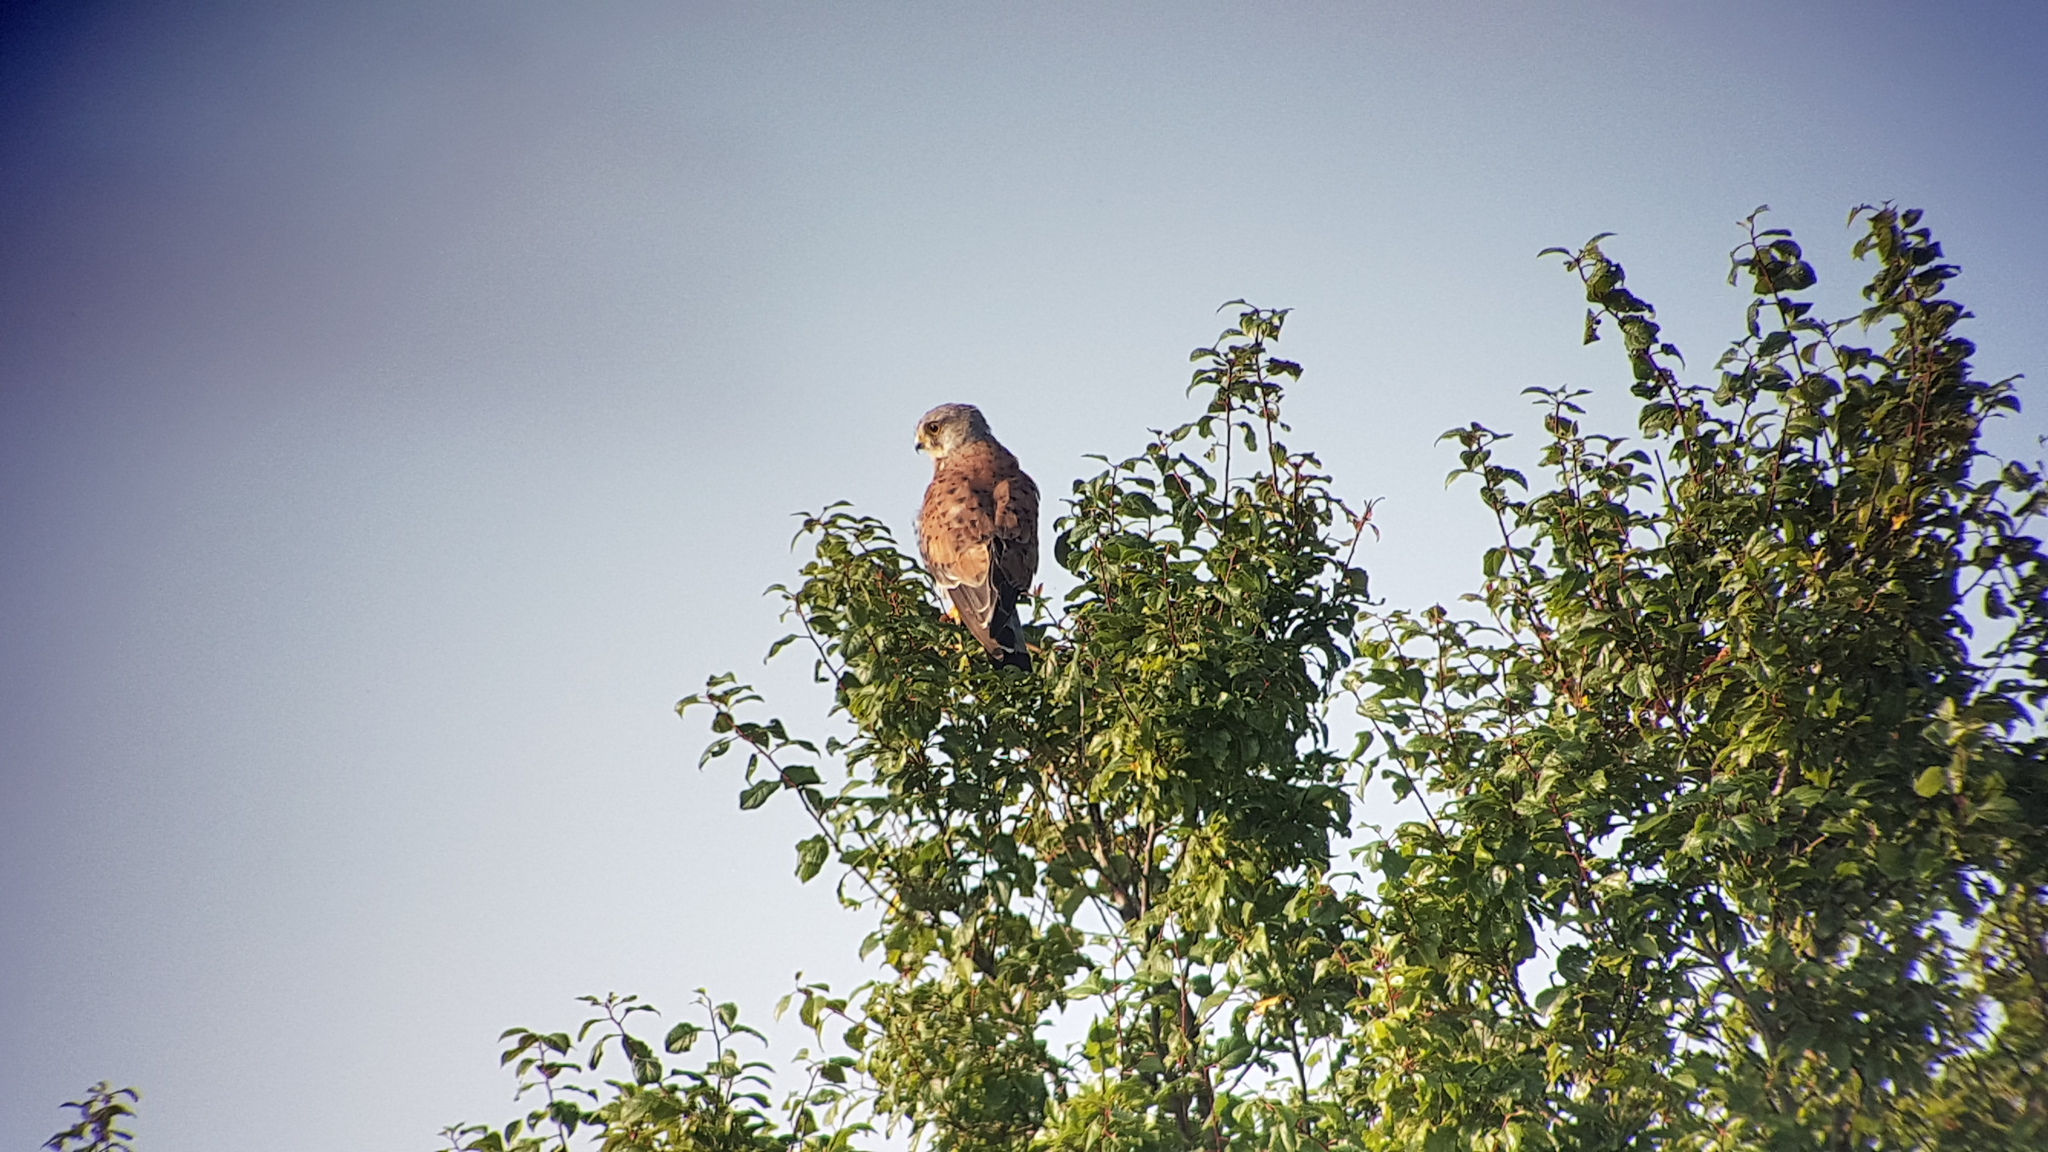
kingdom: Animalia
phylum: Chordata
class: Aves
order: Falconiformes
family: Falconidae
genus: Falco
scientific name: Falco tinnunculus
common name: Common kestrel
